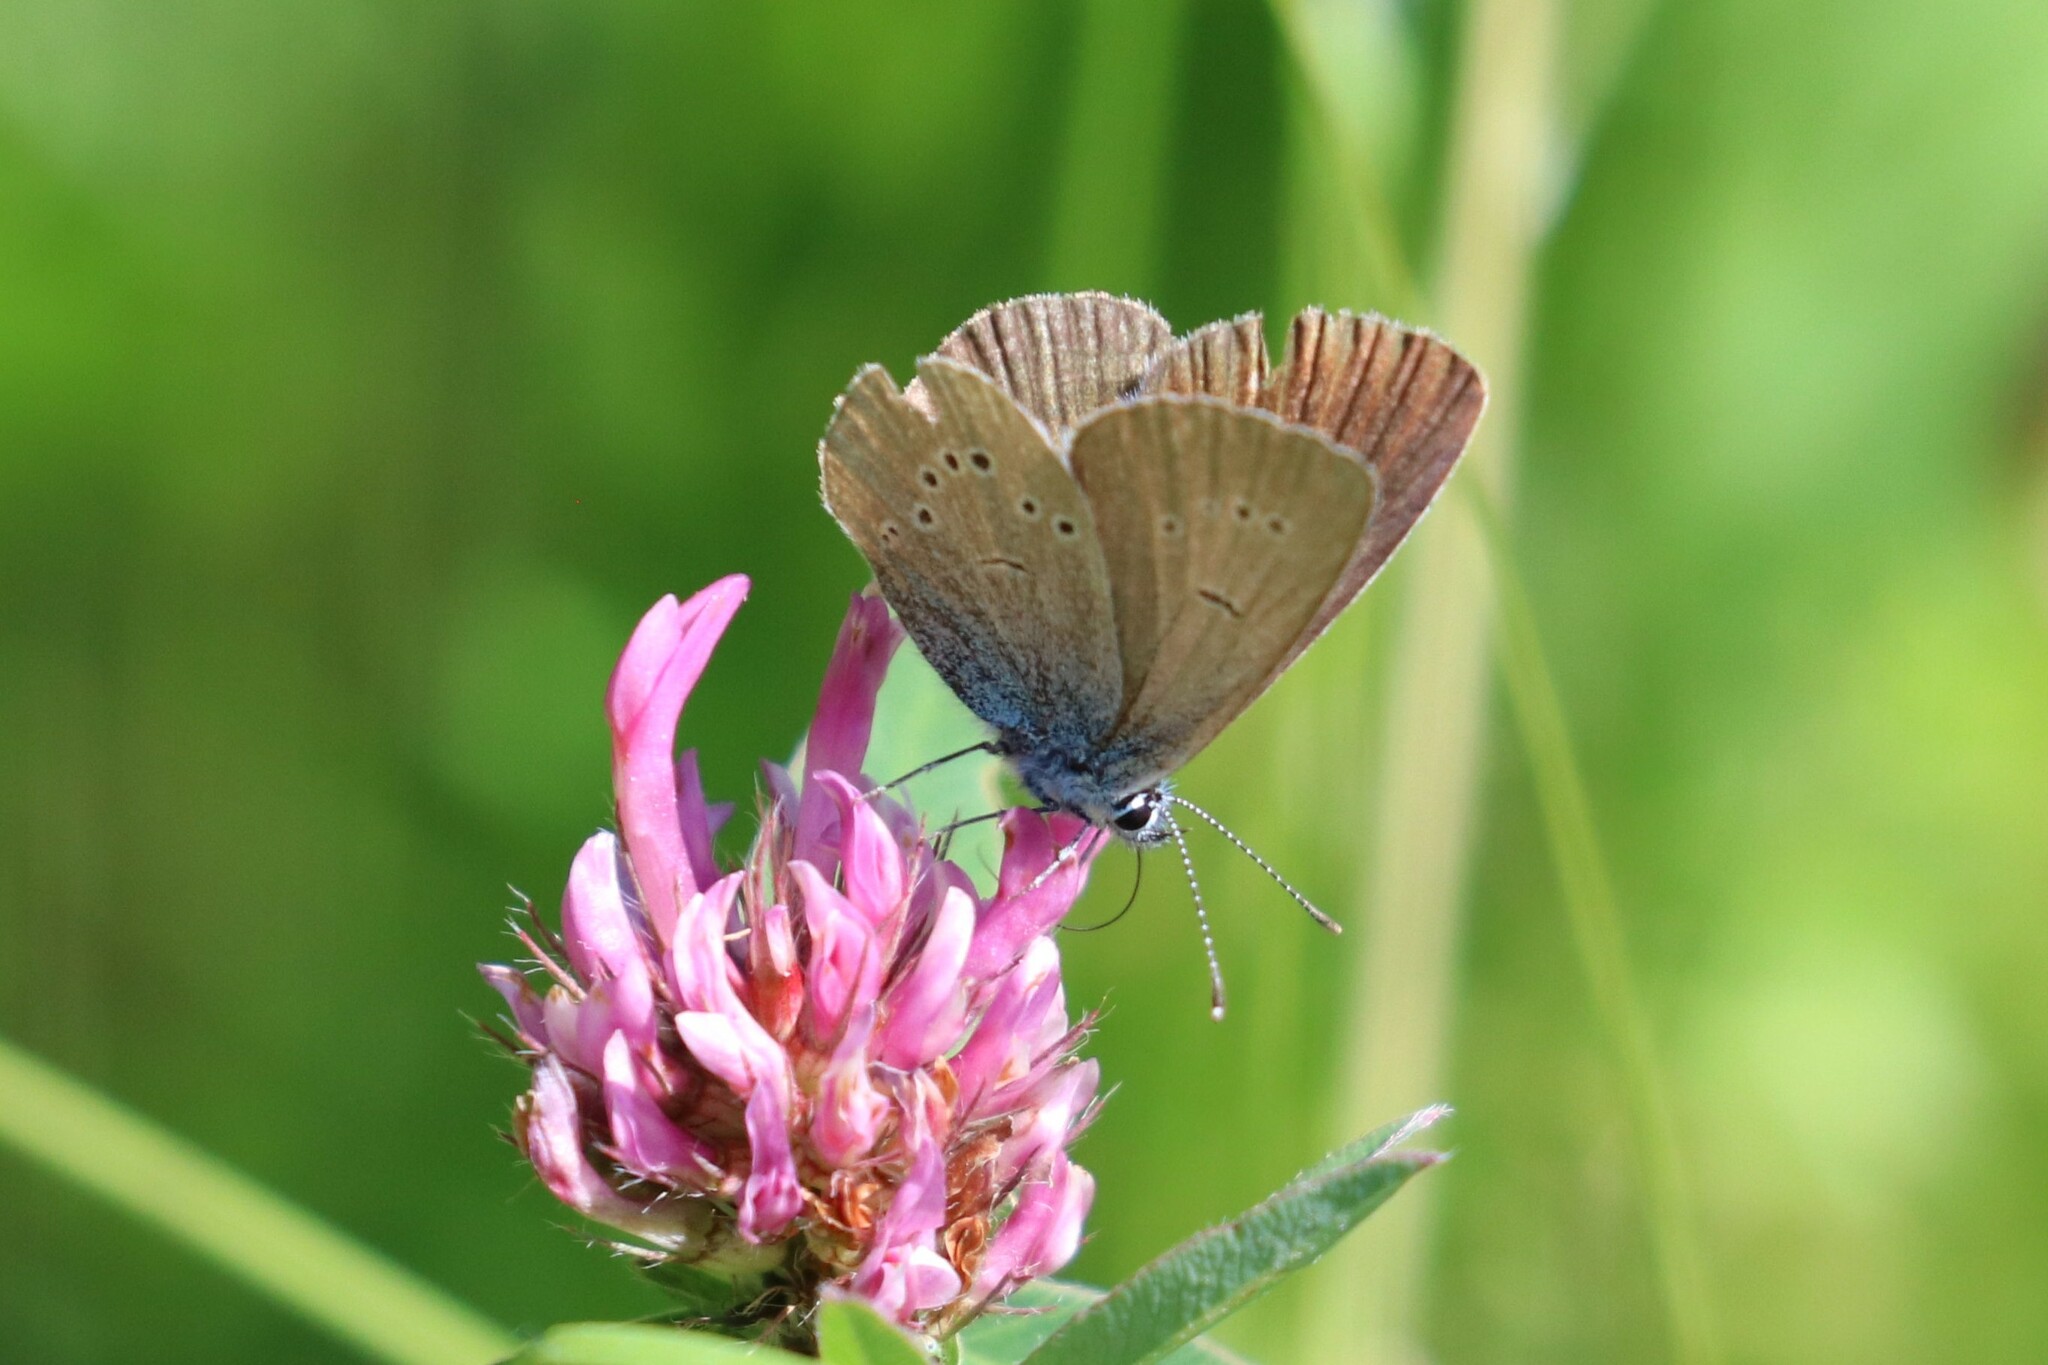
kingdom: Animalia
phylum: Arthropoda
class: Insecta
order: Lepidoptera
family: Lycaenidae
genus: Cyaniris
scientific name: Cyaniris semiargus
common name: Mazarine blue
